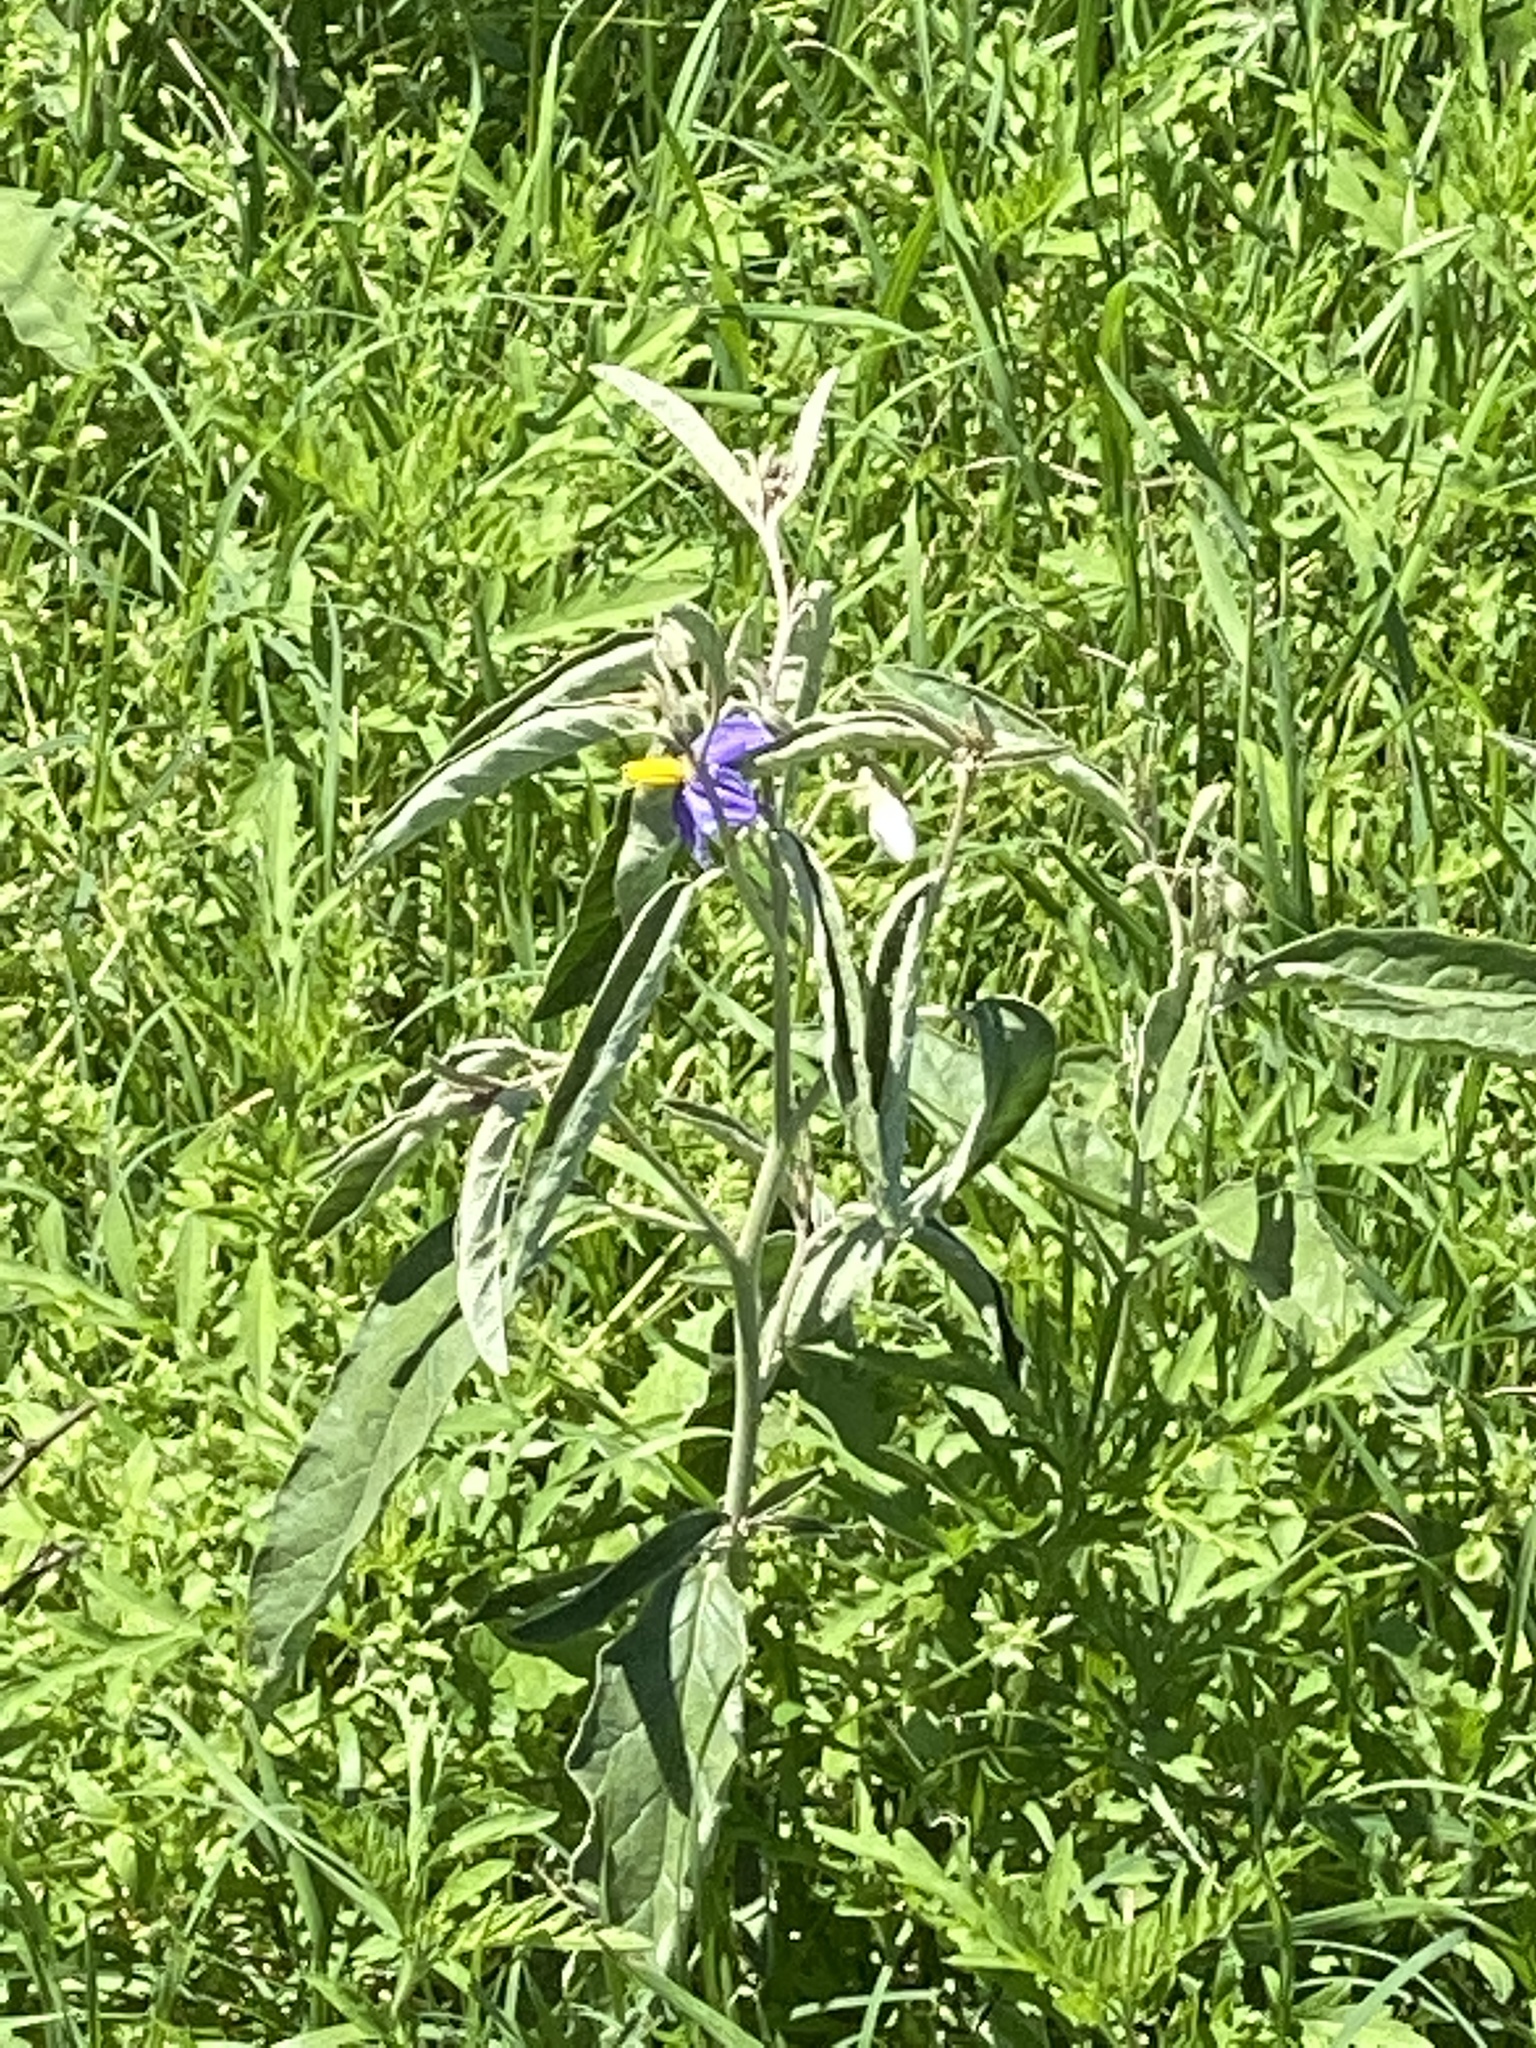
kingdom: Plantae
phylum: Tracheophyta
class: Magnoliopsida
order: Solanales
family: Solanaceae
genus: Solanum
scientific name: Solanum elaeagnifolium
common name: Silverleaf nightshade
